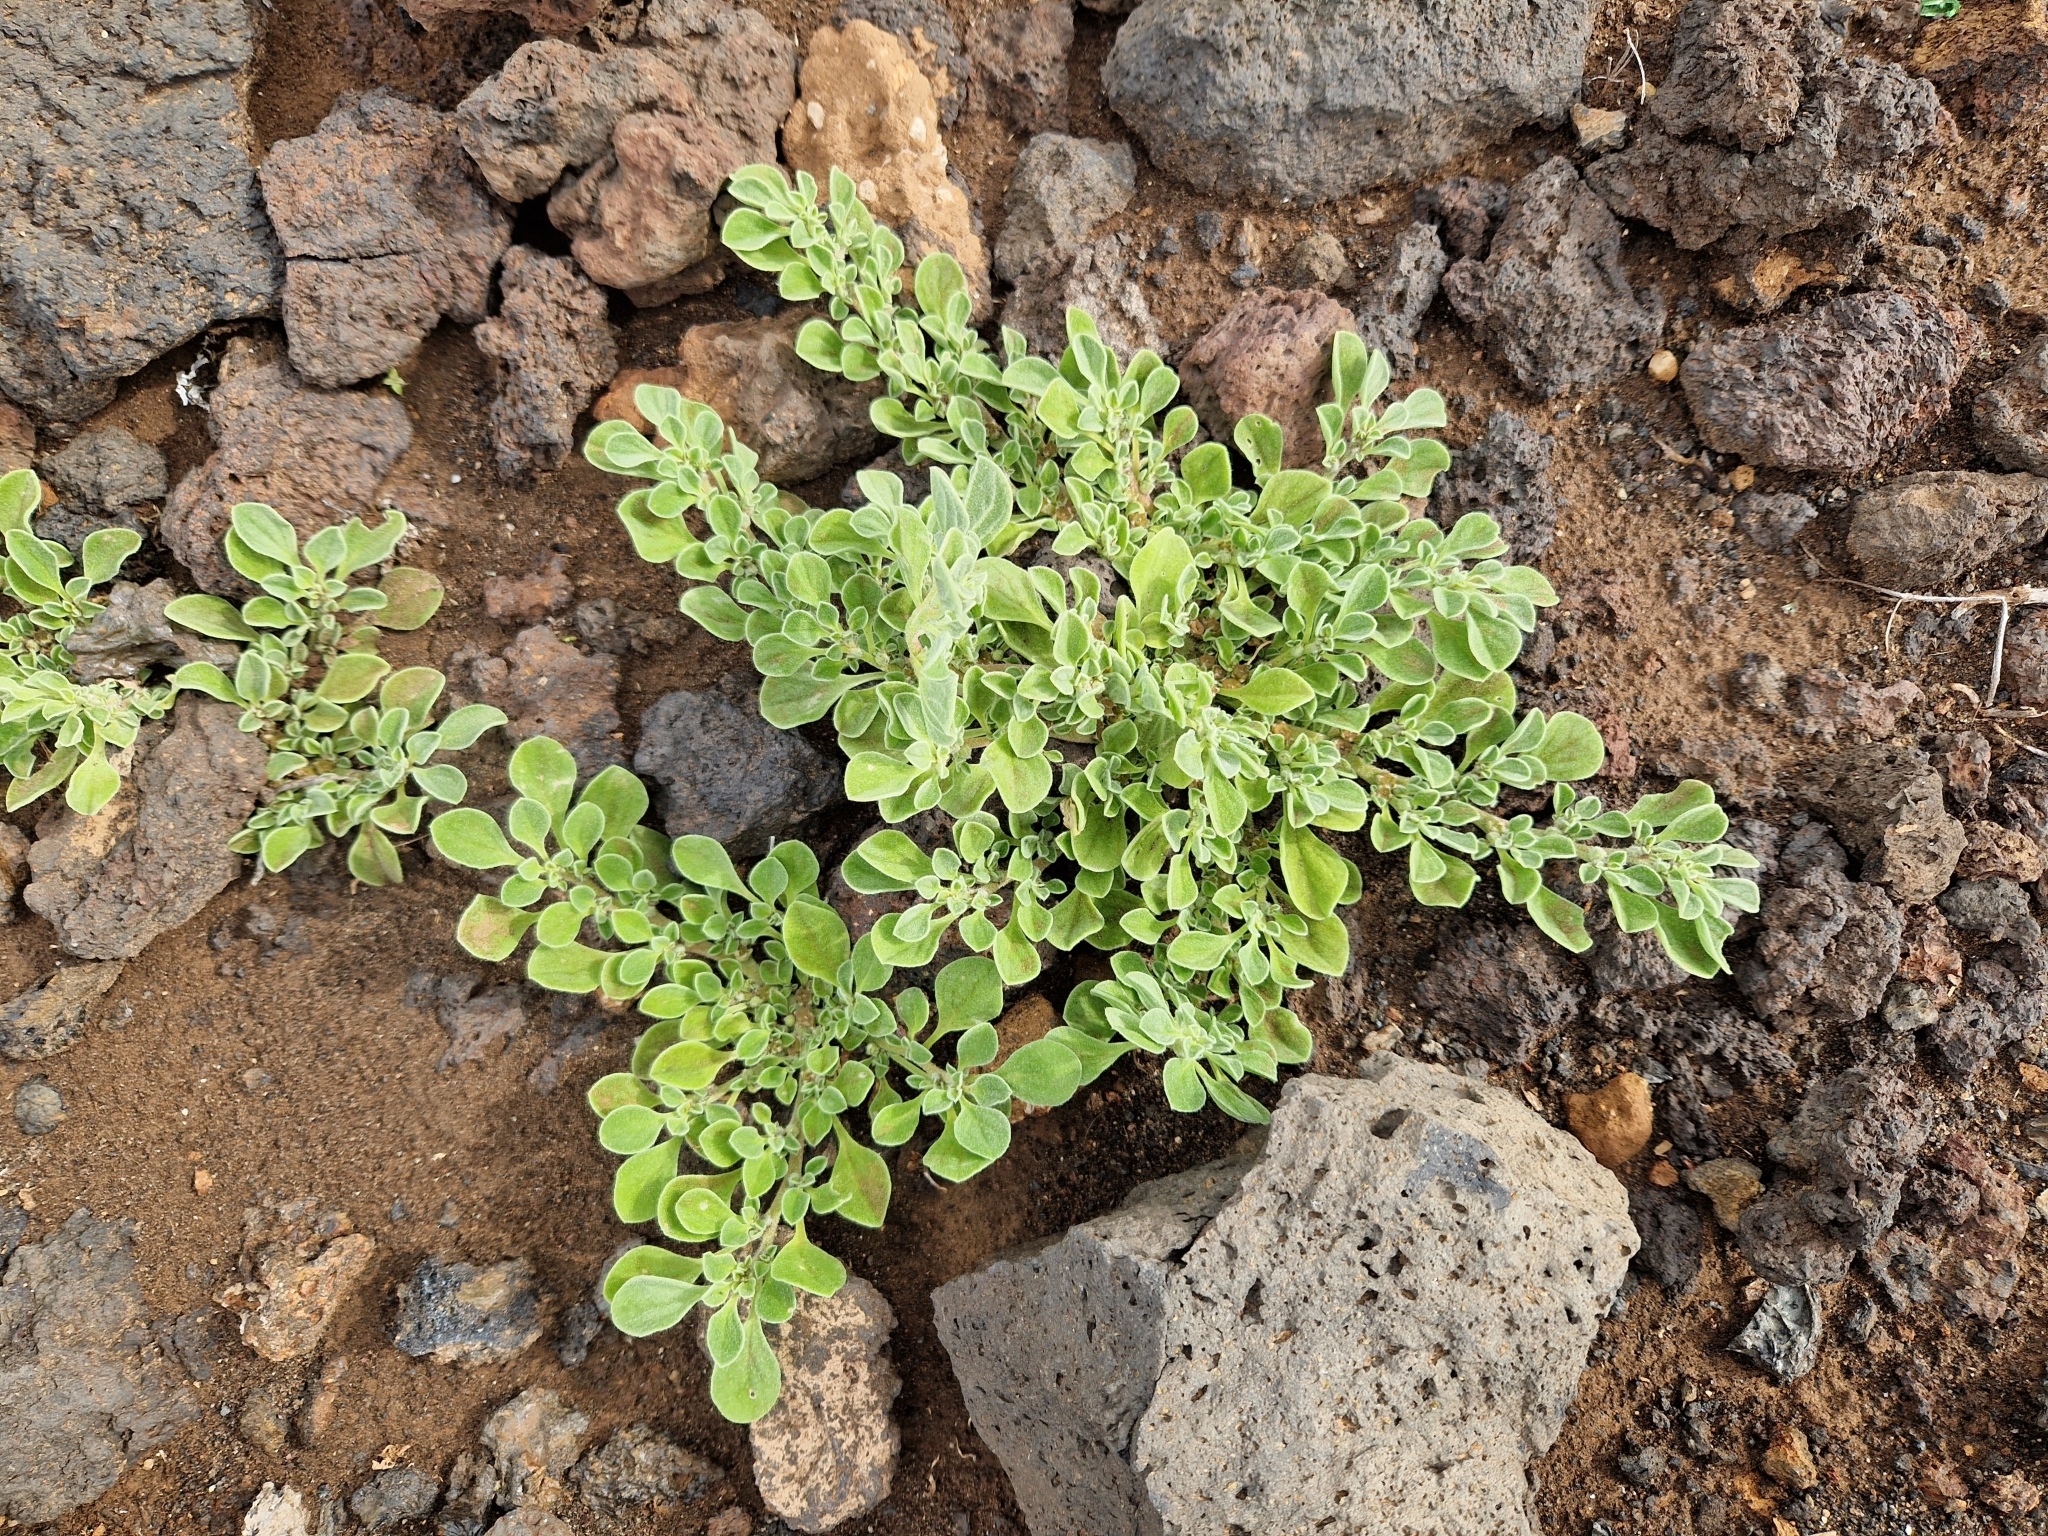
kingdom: Plantae
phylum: Tracheophyta
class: Magnoliopsida
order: Caryophyllales
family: Aizoaceae
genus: Aizoon
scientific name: Aizoon canariense
